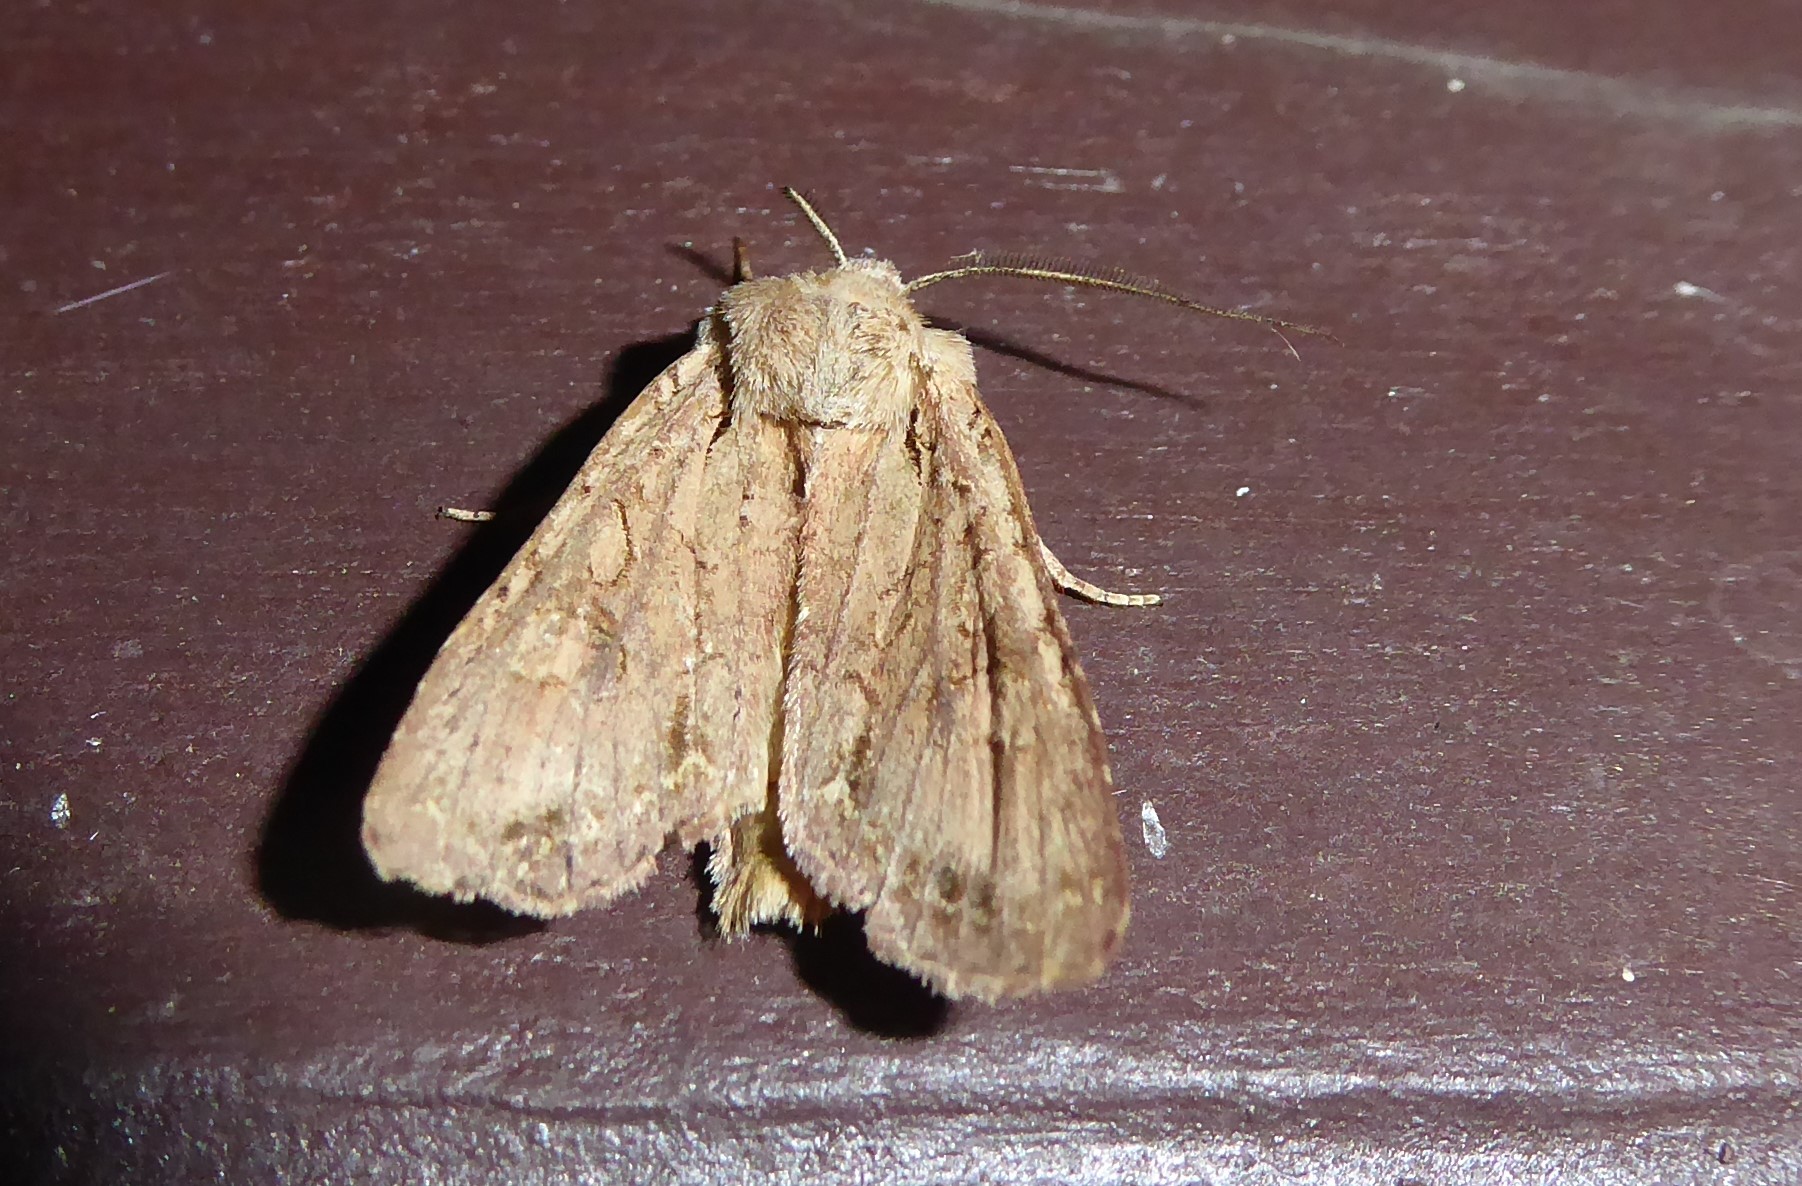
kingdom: Animalia
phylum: Arthropoda
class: Insecta
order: Lepidoptera
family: Noctuidae
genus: Ichneutica
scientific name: Ichneutica
